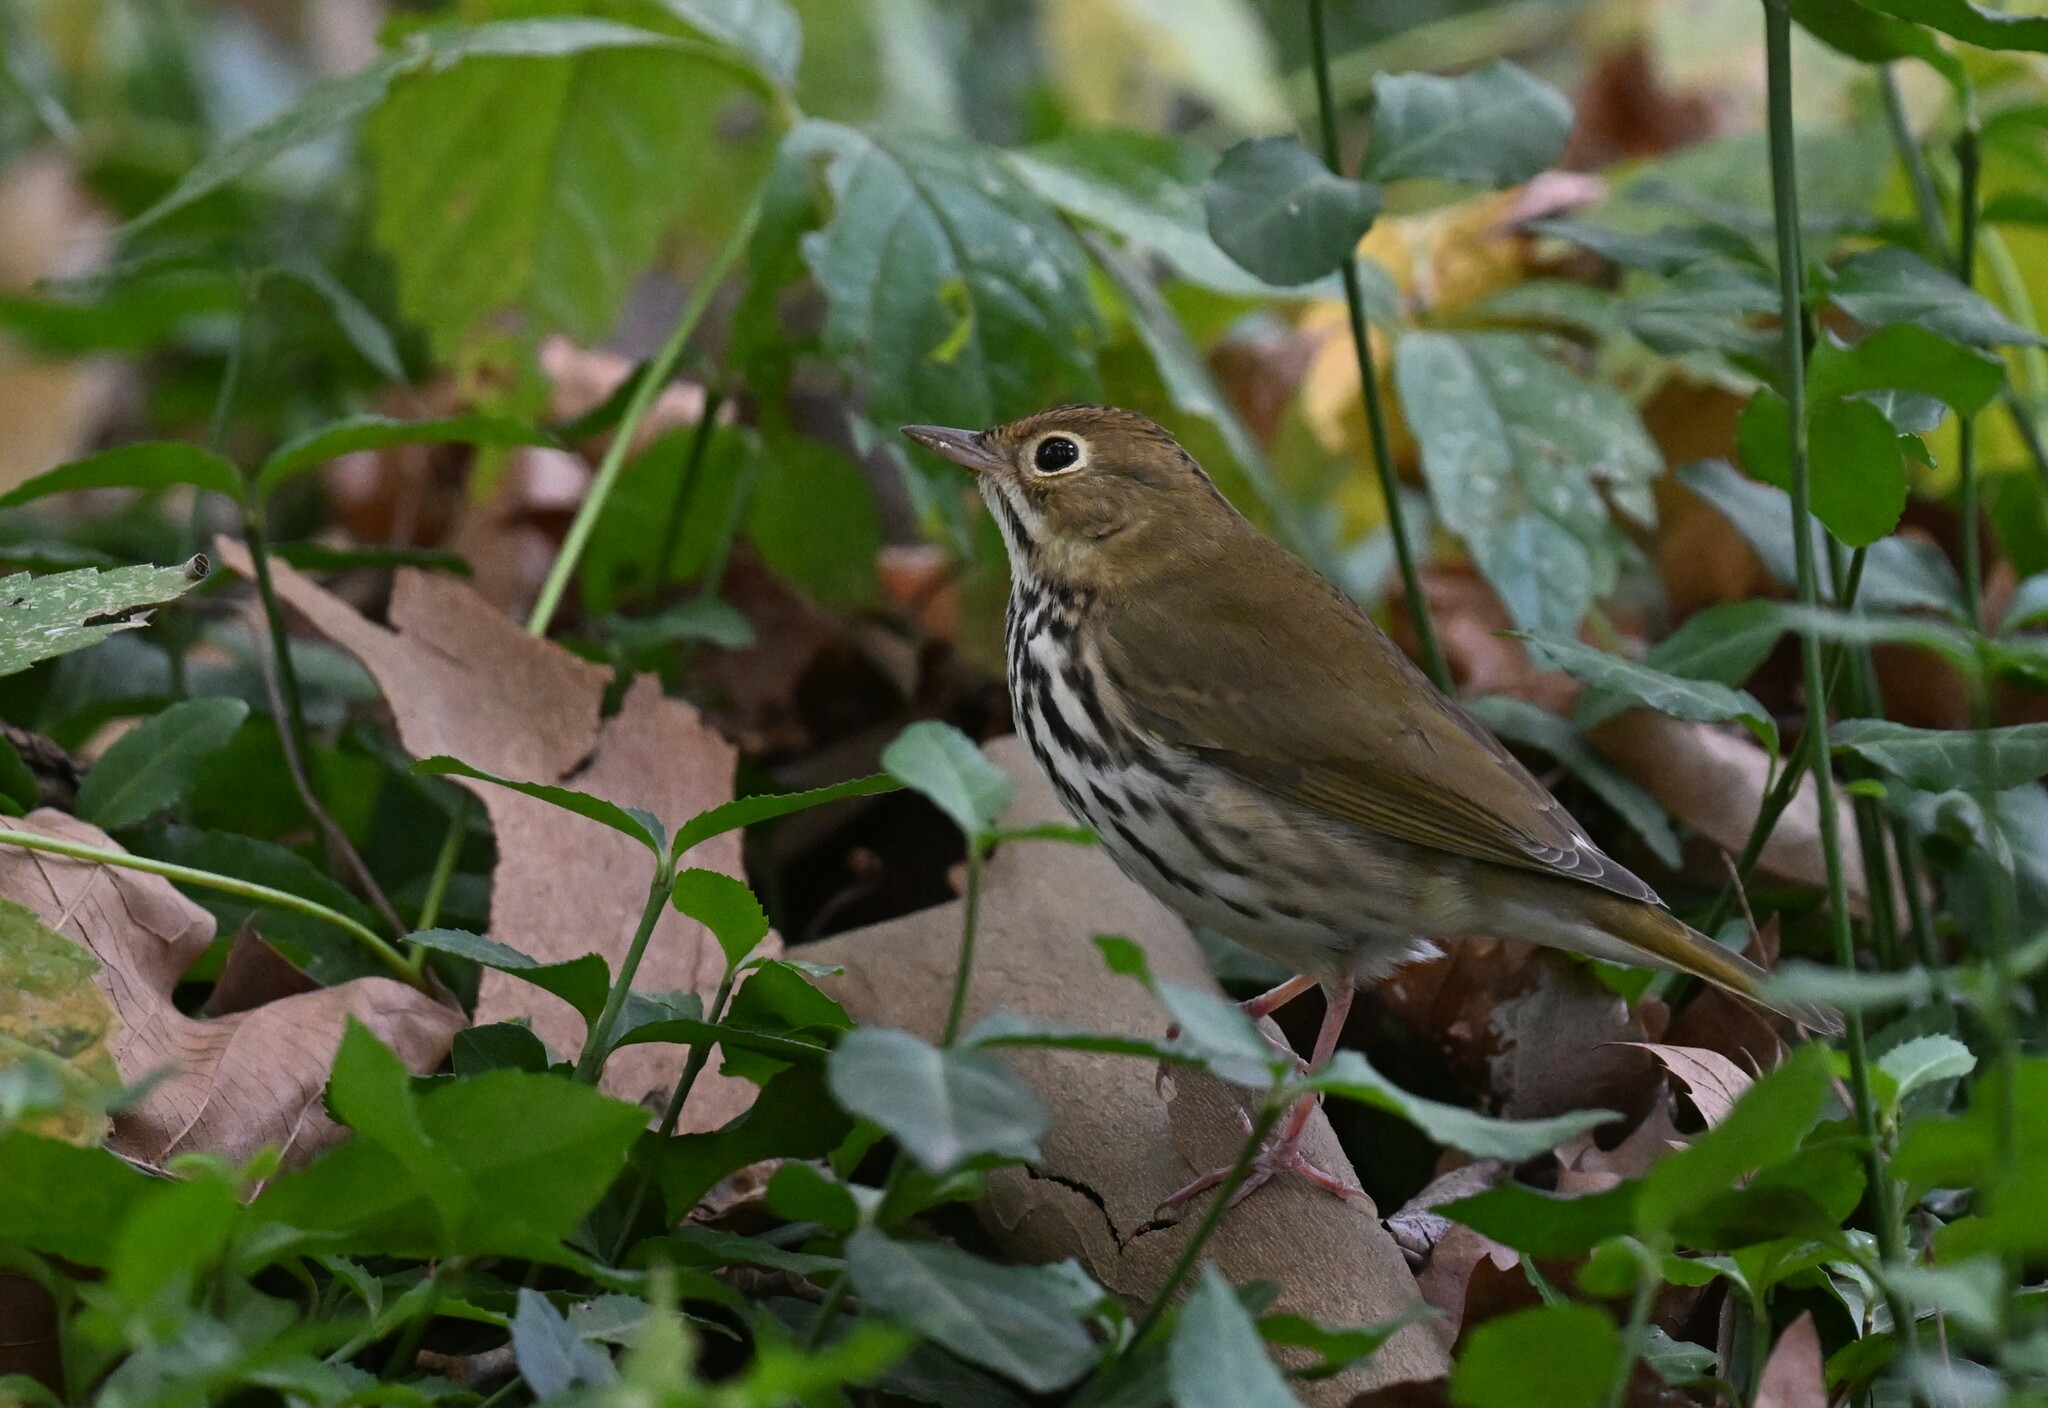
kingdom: Animalia
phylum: Chordata
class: Aves
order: Passeriformes
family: Parulidae
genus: Seiurus
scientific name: Seiurus aurocapilla
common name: Ovenbird
